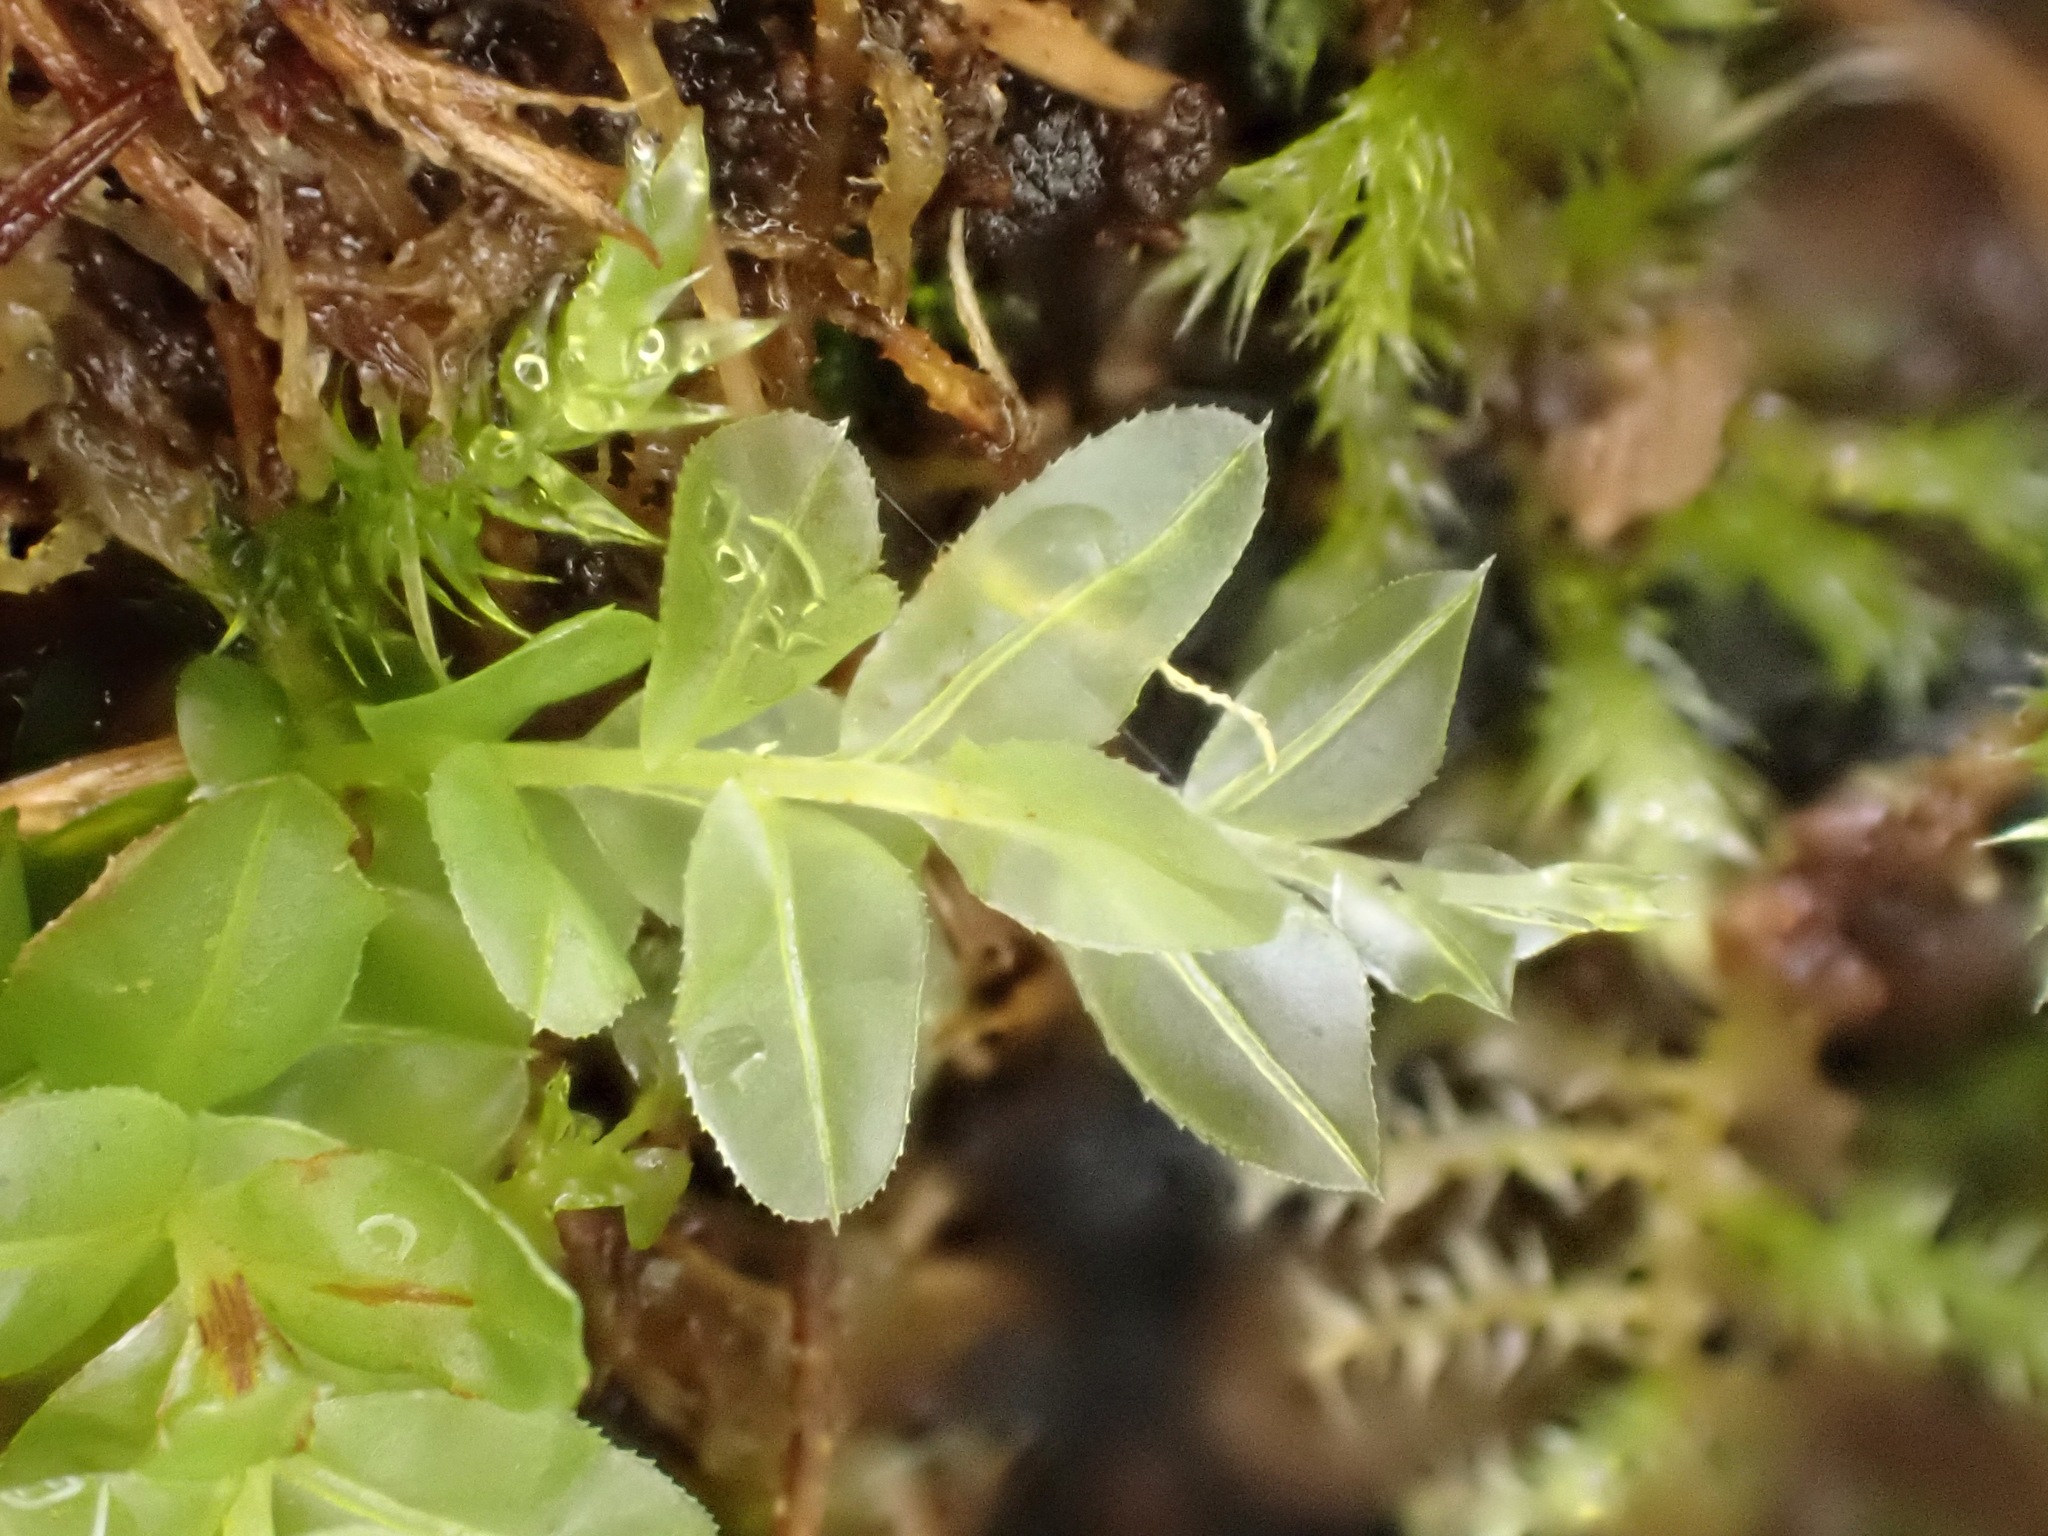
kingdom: Plantae
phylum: Bryophyta
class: Bryopsida
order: Bryales
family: Mniaceae
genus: Plagiomnium
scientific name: Plagiomnium undulatum
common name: Hart's-tongue thyme-moss
